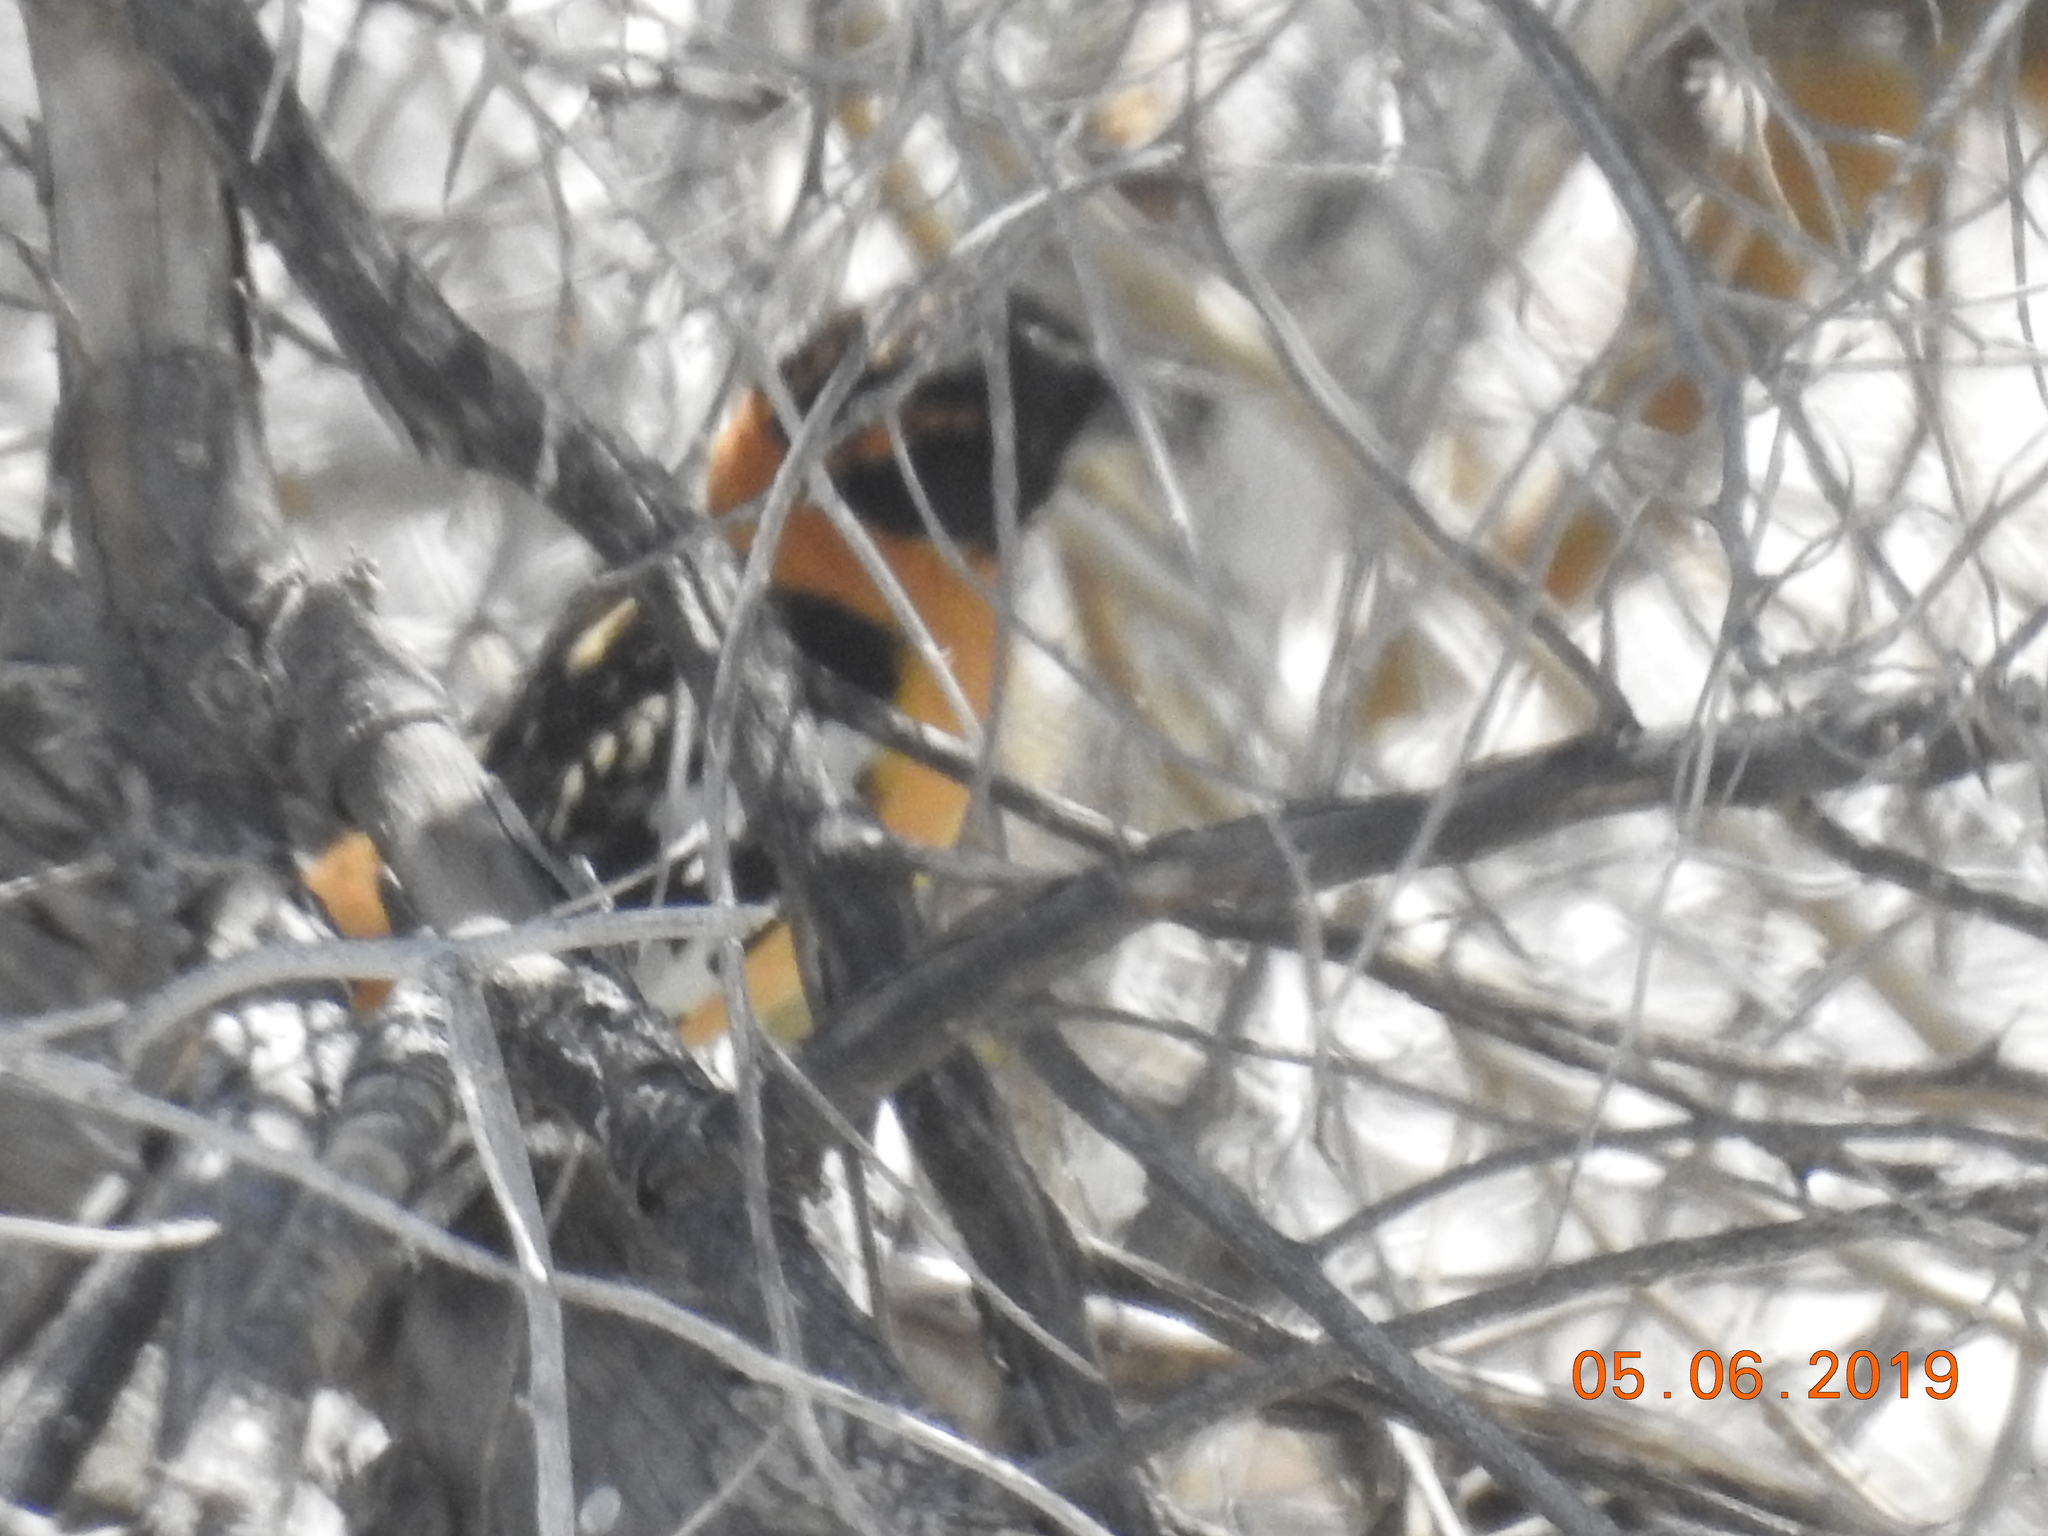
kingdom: Animalia
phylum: Chordata
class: Aves
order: Passeriformes
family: Cardinalidae
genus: Pheucticus
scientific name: Pheucticus melanocephalus
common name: Black-headed grosbeak
